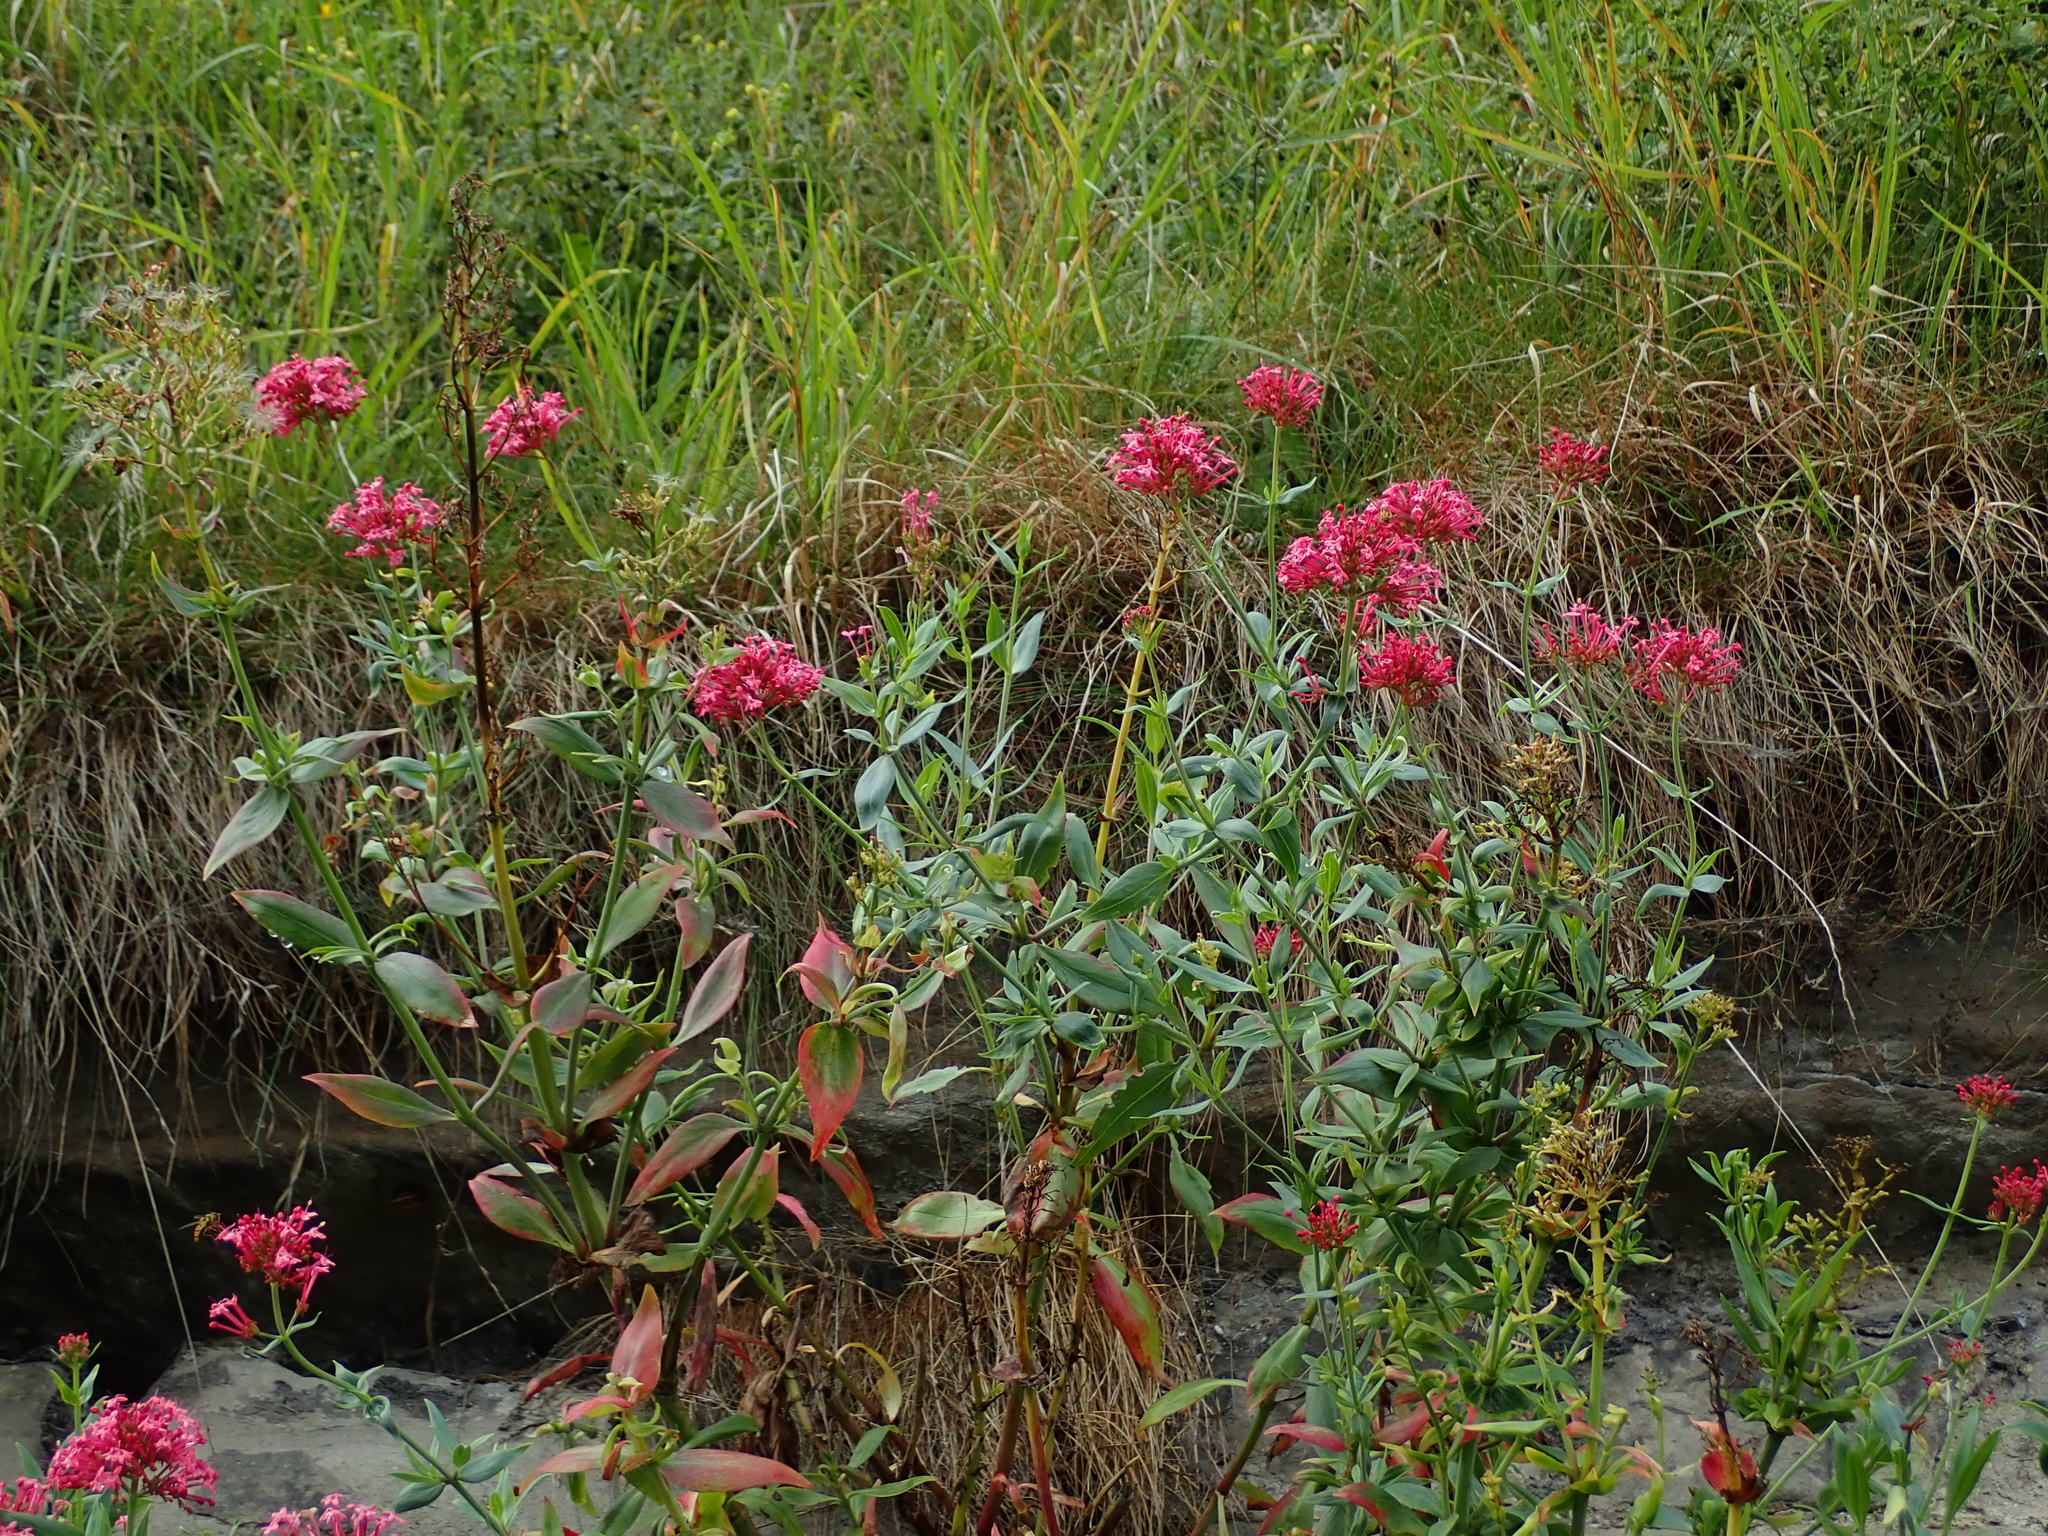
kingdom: Plantae
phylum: Tracheophyta
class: Magnoliopsida
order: Dipsacales
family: Caprifoliaceae
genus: Centranthus
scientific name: Centranthus ruber
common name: Red valerian
